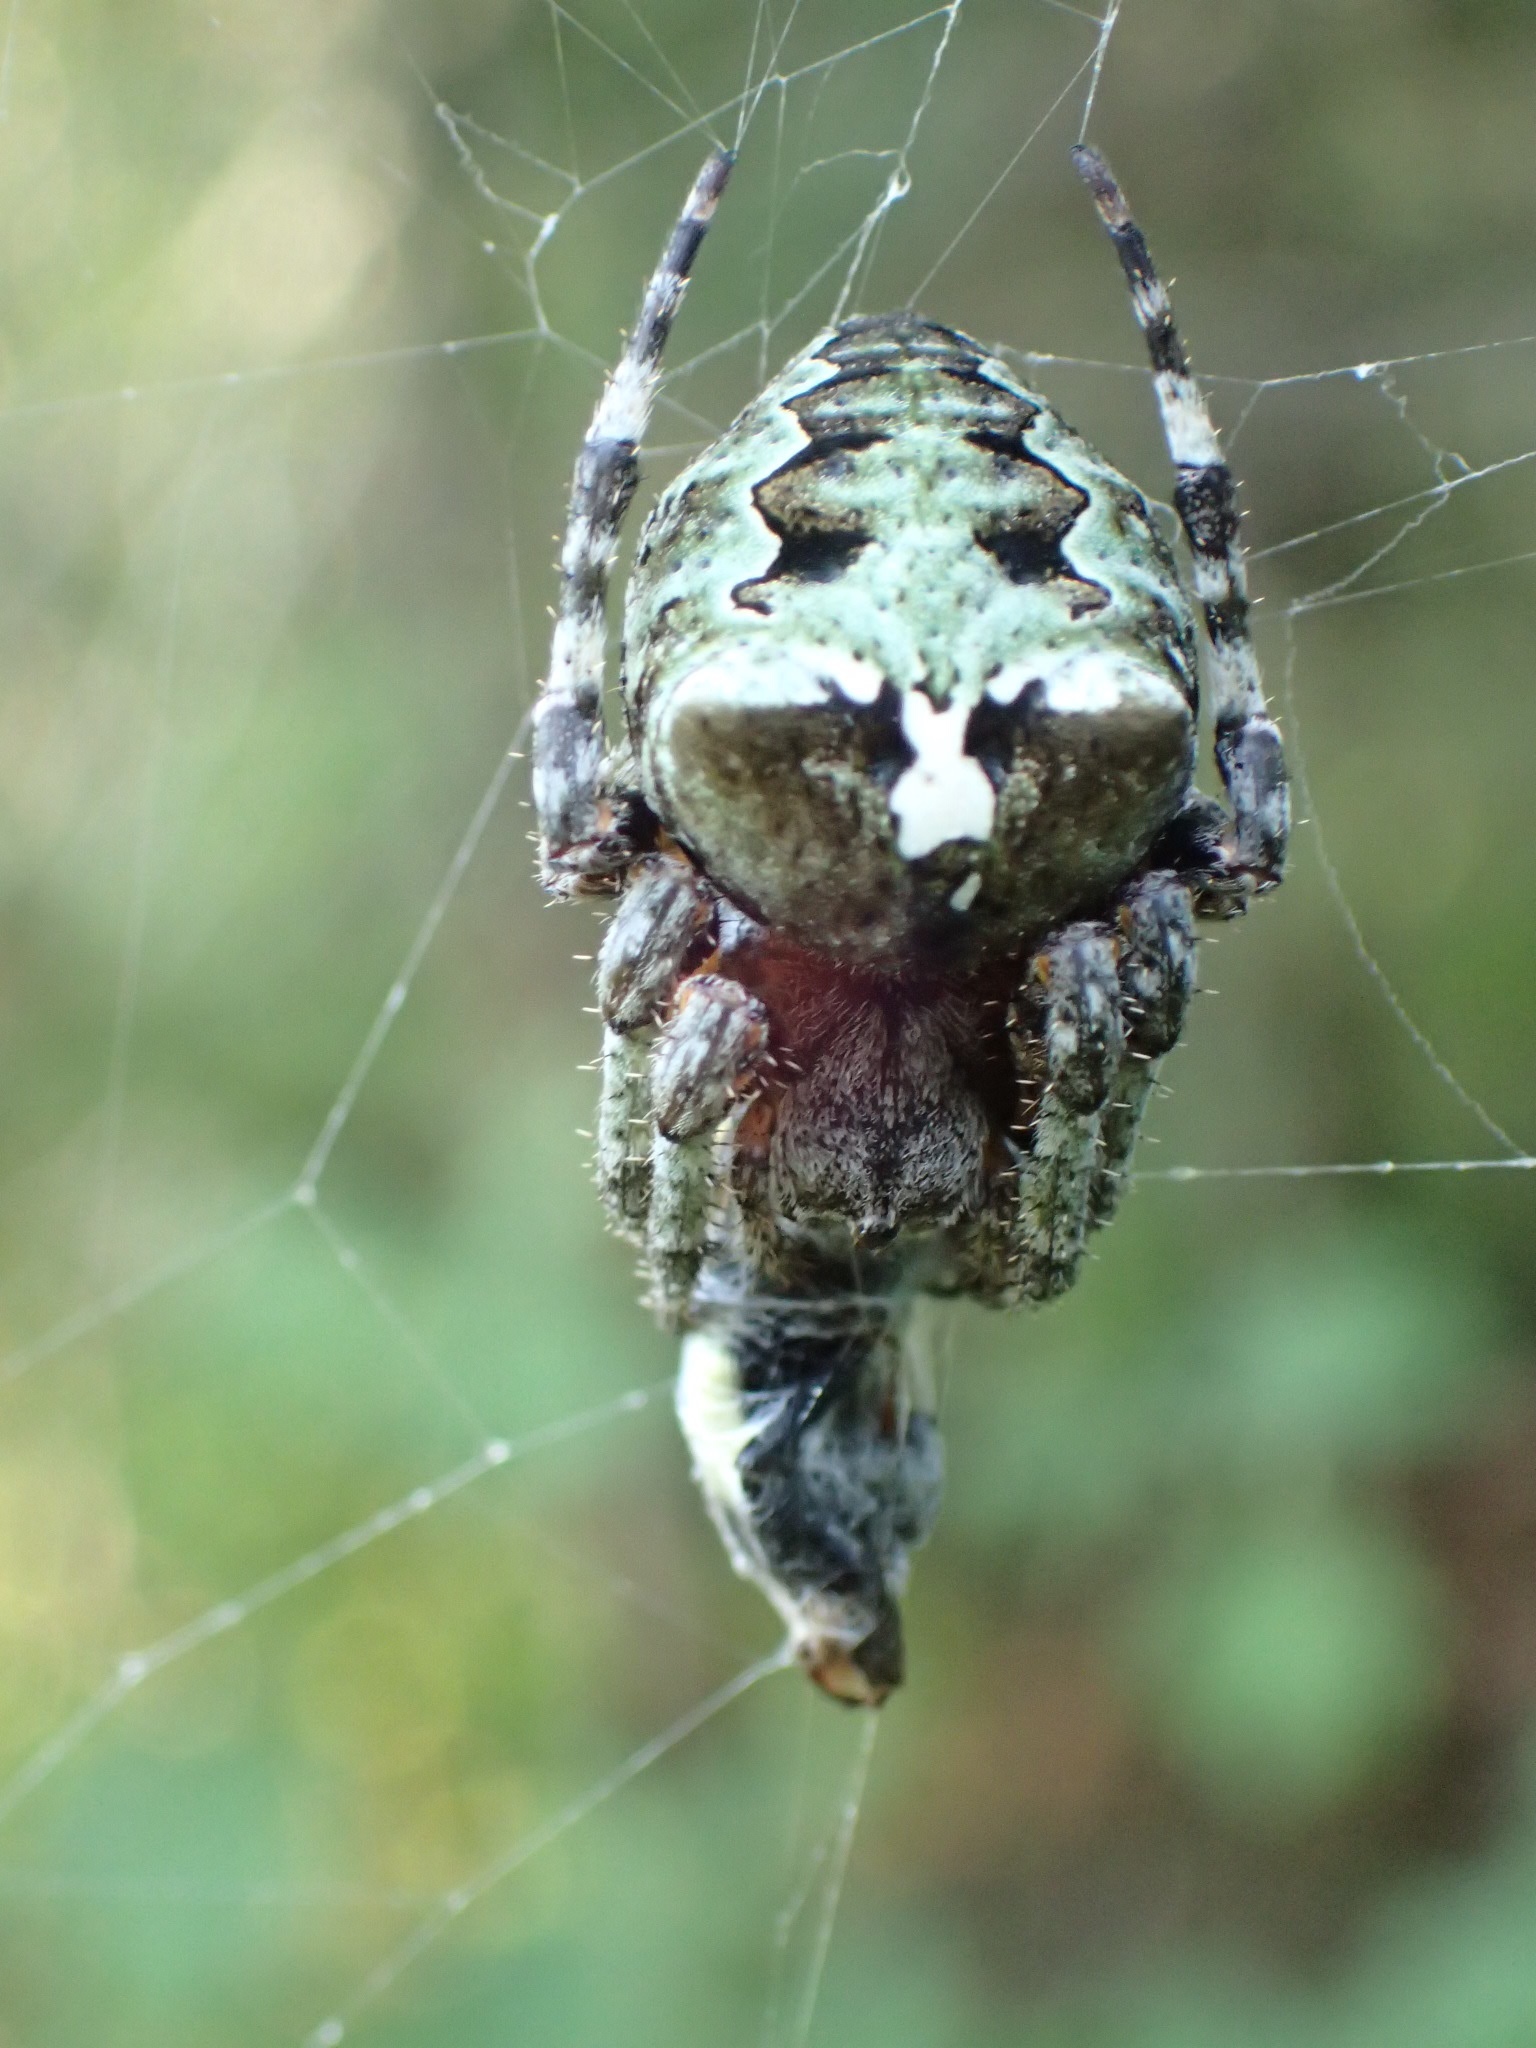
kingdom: Animalia
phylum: Arthropoda
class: Arachnida
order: Araneae
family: Araneidae
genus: Araneus
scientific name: Araneus bicentenarius
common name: Giant lichen orbweaver
